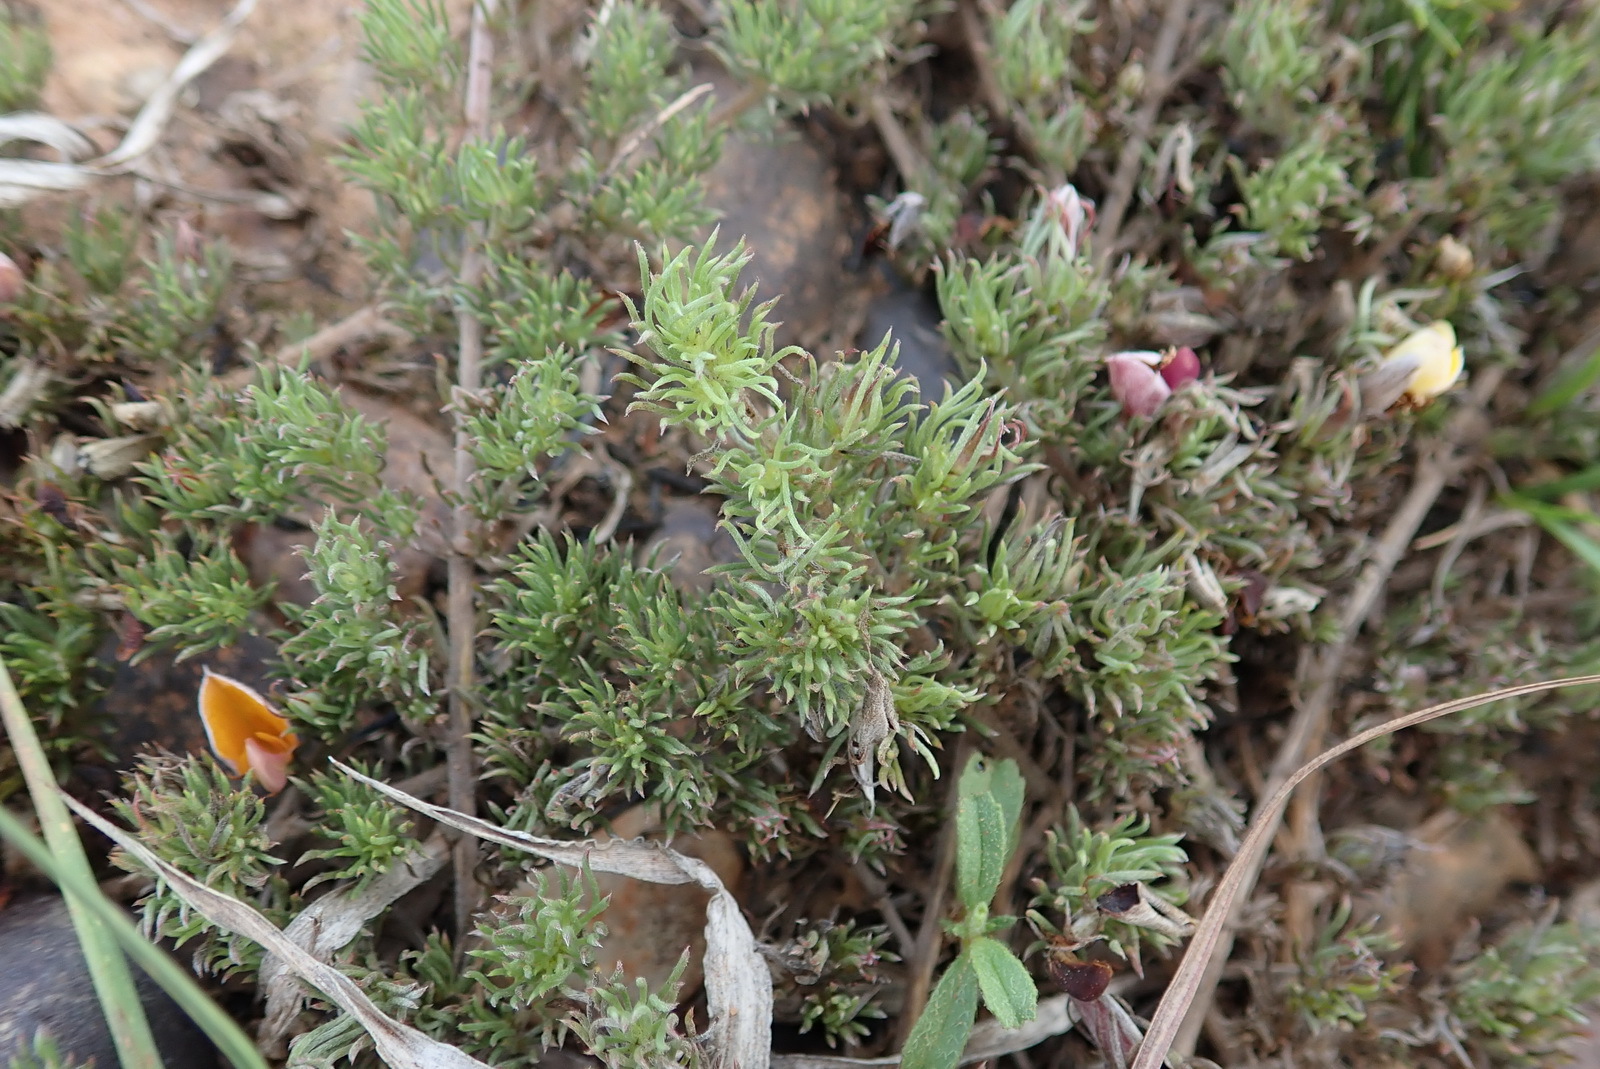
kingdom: Plantae
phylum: Tracheophyta
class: Magnoliopsida
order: Fabales
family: Fabaceae
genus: Aspalathus
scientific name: Aspalathus grobleri
